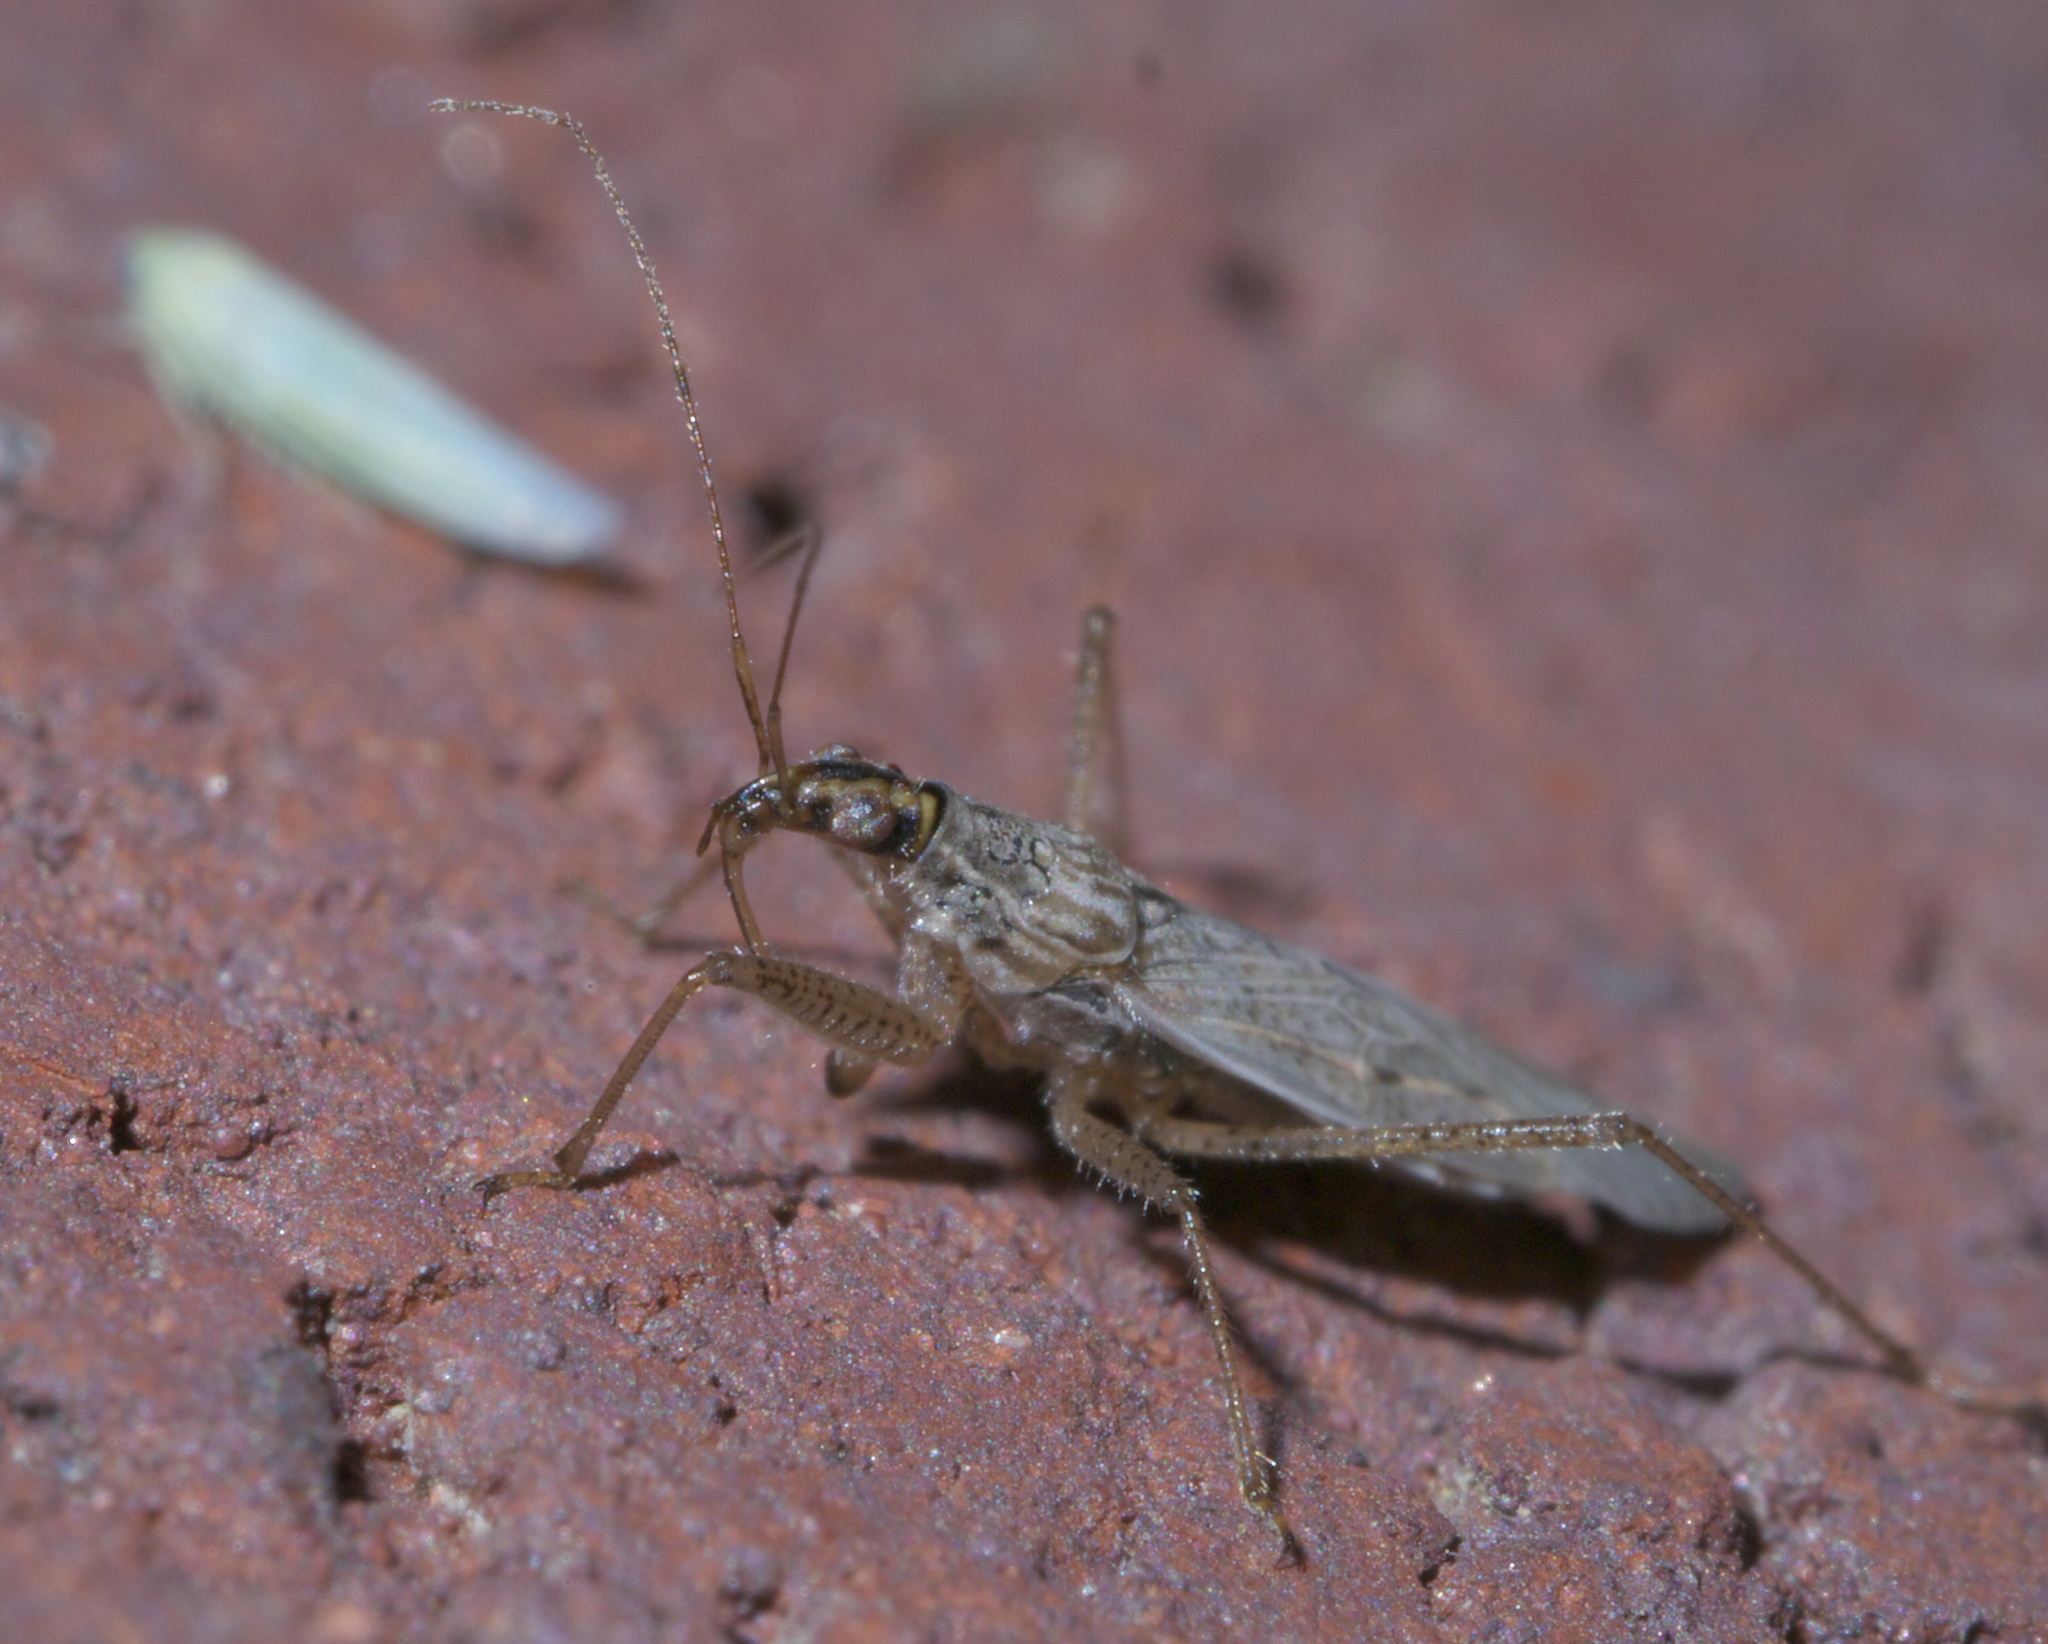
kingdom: Animalia
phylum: Arthropoda
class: Insecta
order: Hemiptera
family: Nabidae
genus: Nabis
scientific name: Nabis americoferus
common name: Common damsel bug
